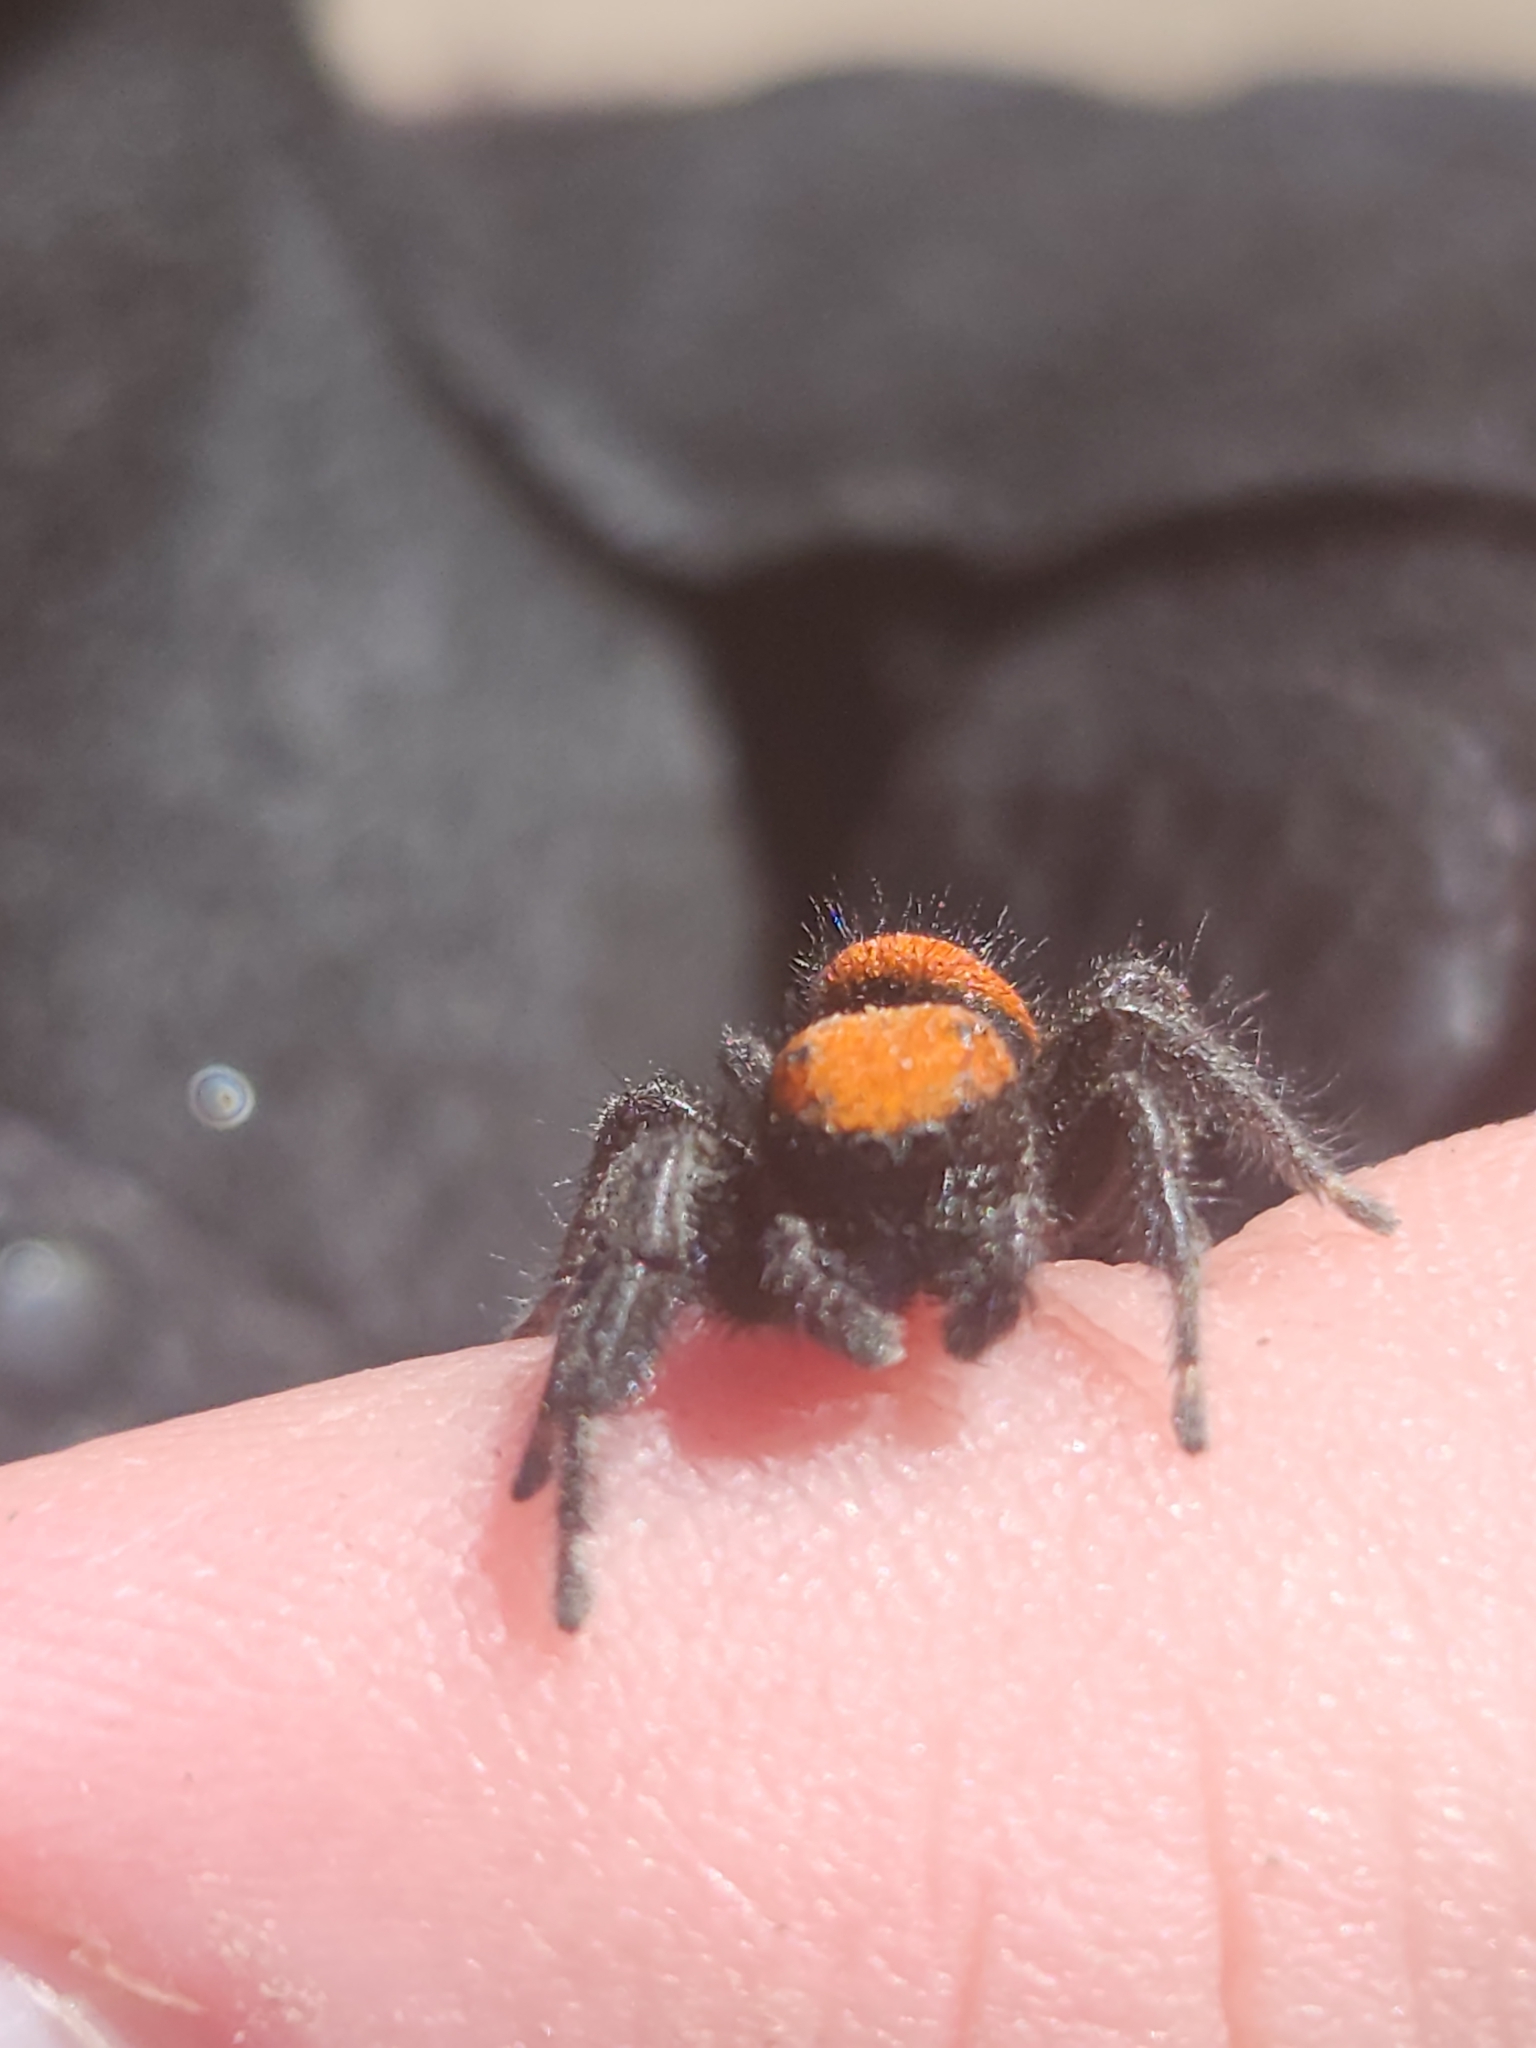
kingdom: Animalia
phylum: Arthropoda
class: Arachnida
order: Araneae
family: Salticidae
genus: Phidippus
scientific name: Phidippus apacheanus
